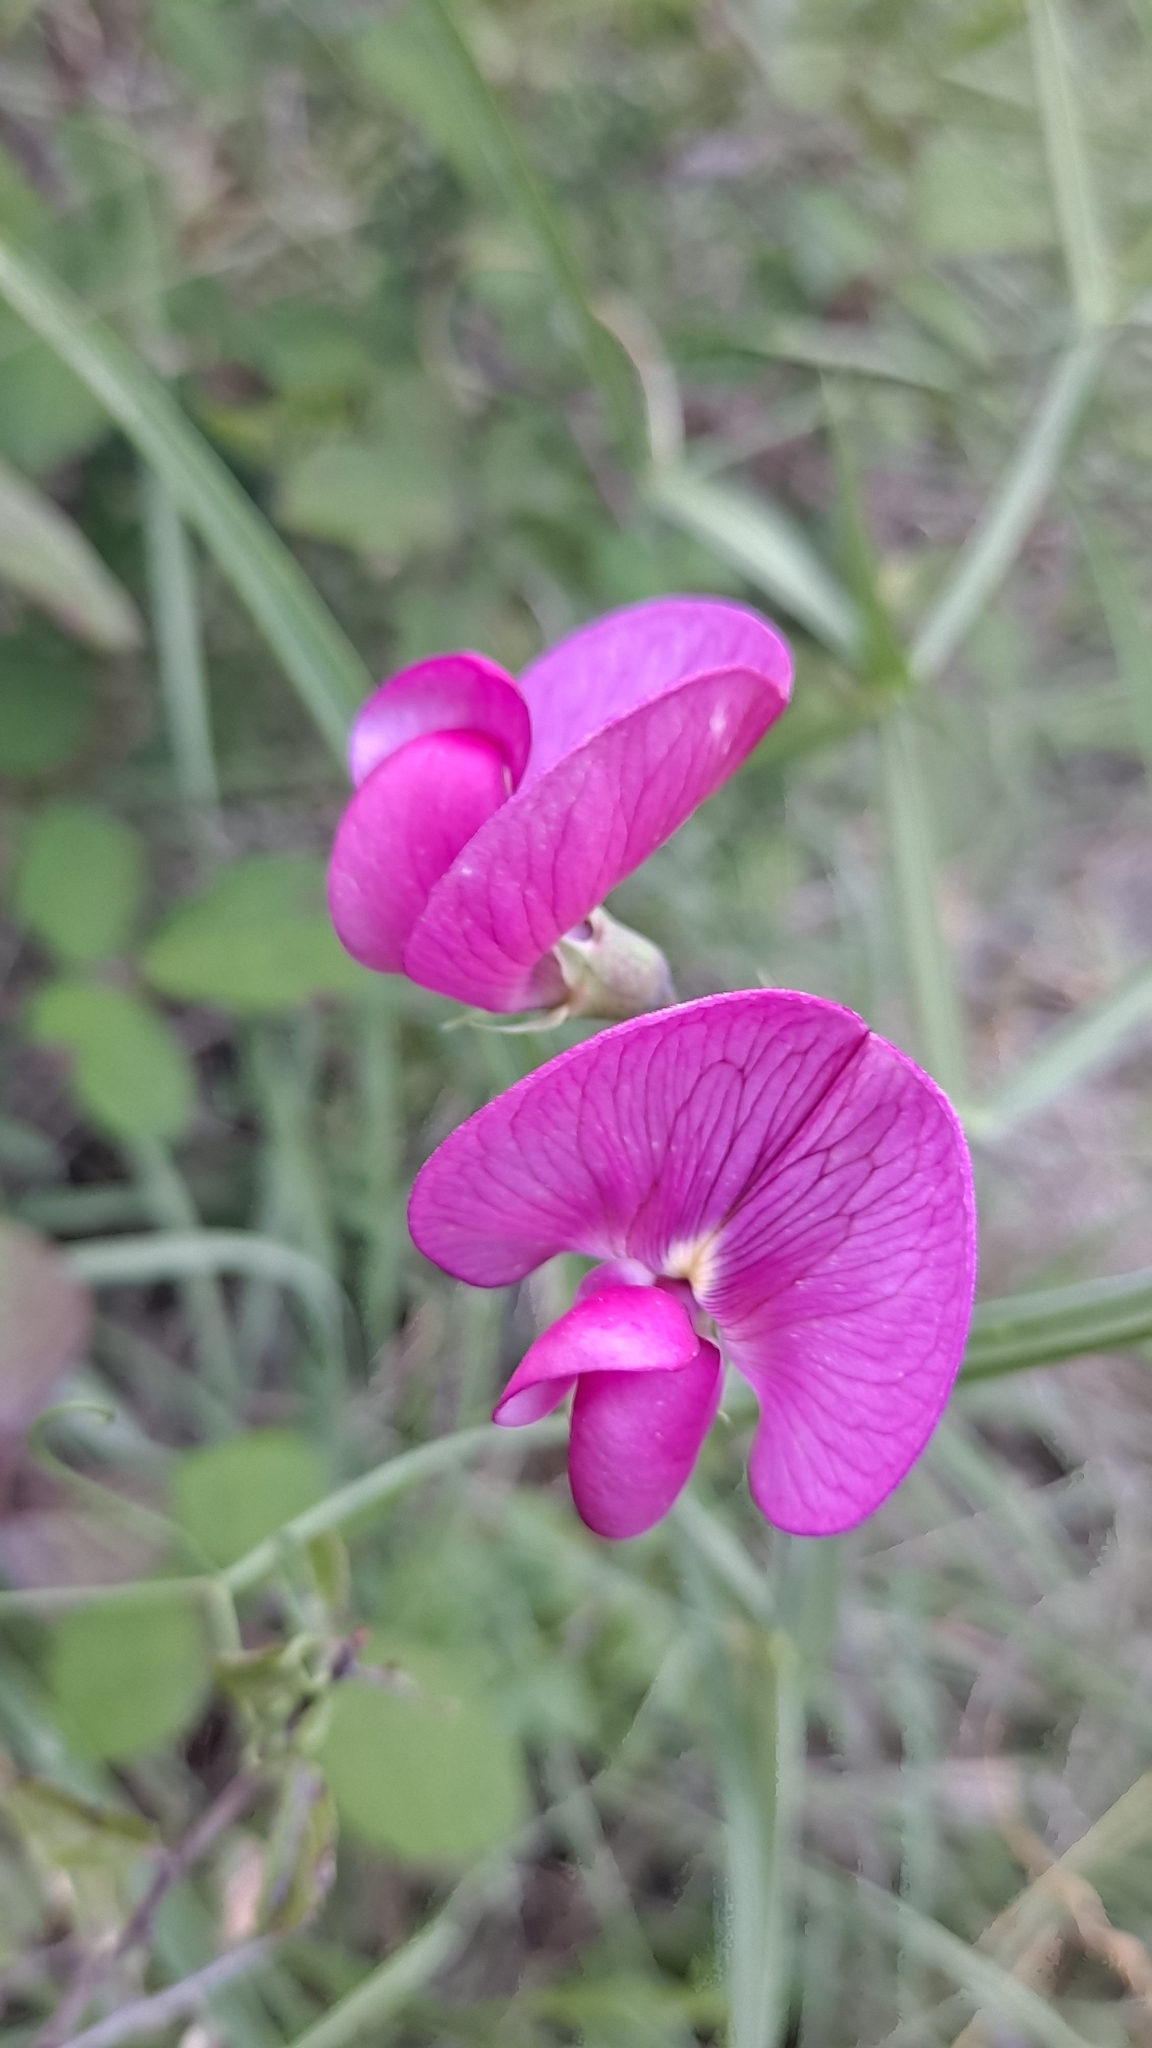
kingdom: Plantae
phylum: Tracheophyta
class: Magnoliopsida
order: Fabales
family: Fabaceae
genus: Lathyrus
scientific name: Lathyrus latifolius
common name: Perennial pea
